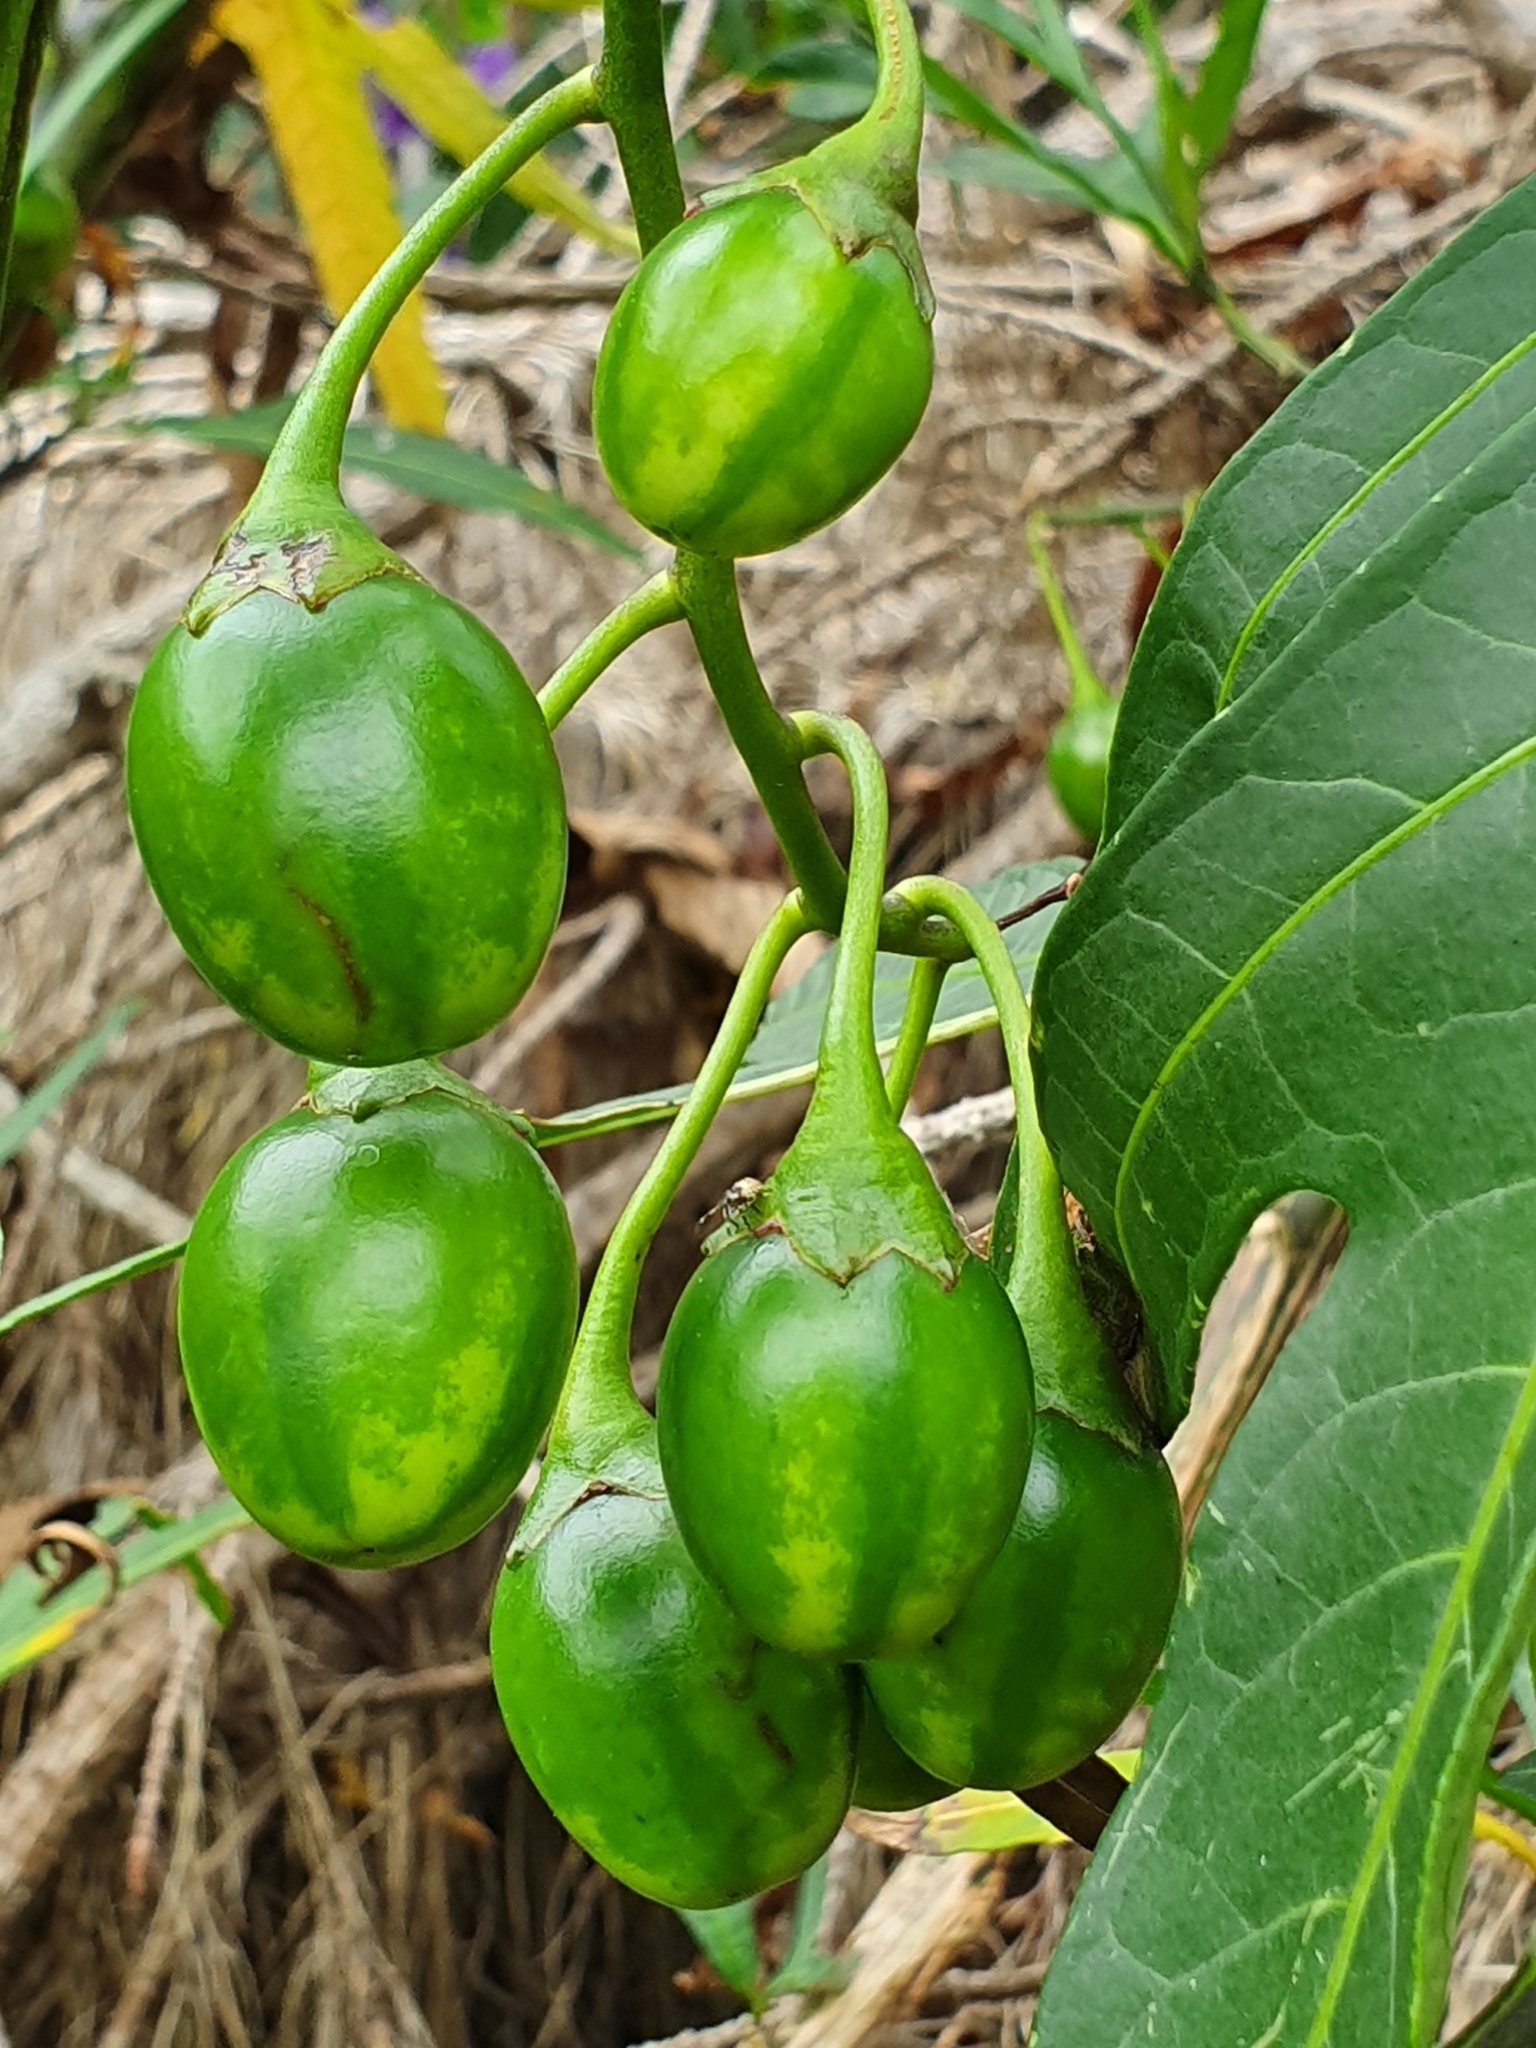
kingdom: Plantae
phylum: Tracheophyta
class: Magnoliopsida
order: Solanales
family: Solanaceae
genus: Solanum
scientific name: Solanum laciniatum
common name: Kangaroo-apple
